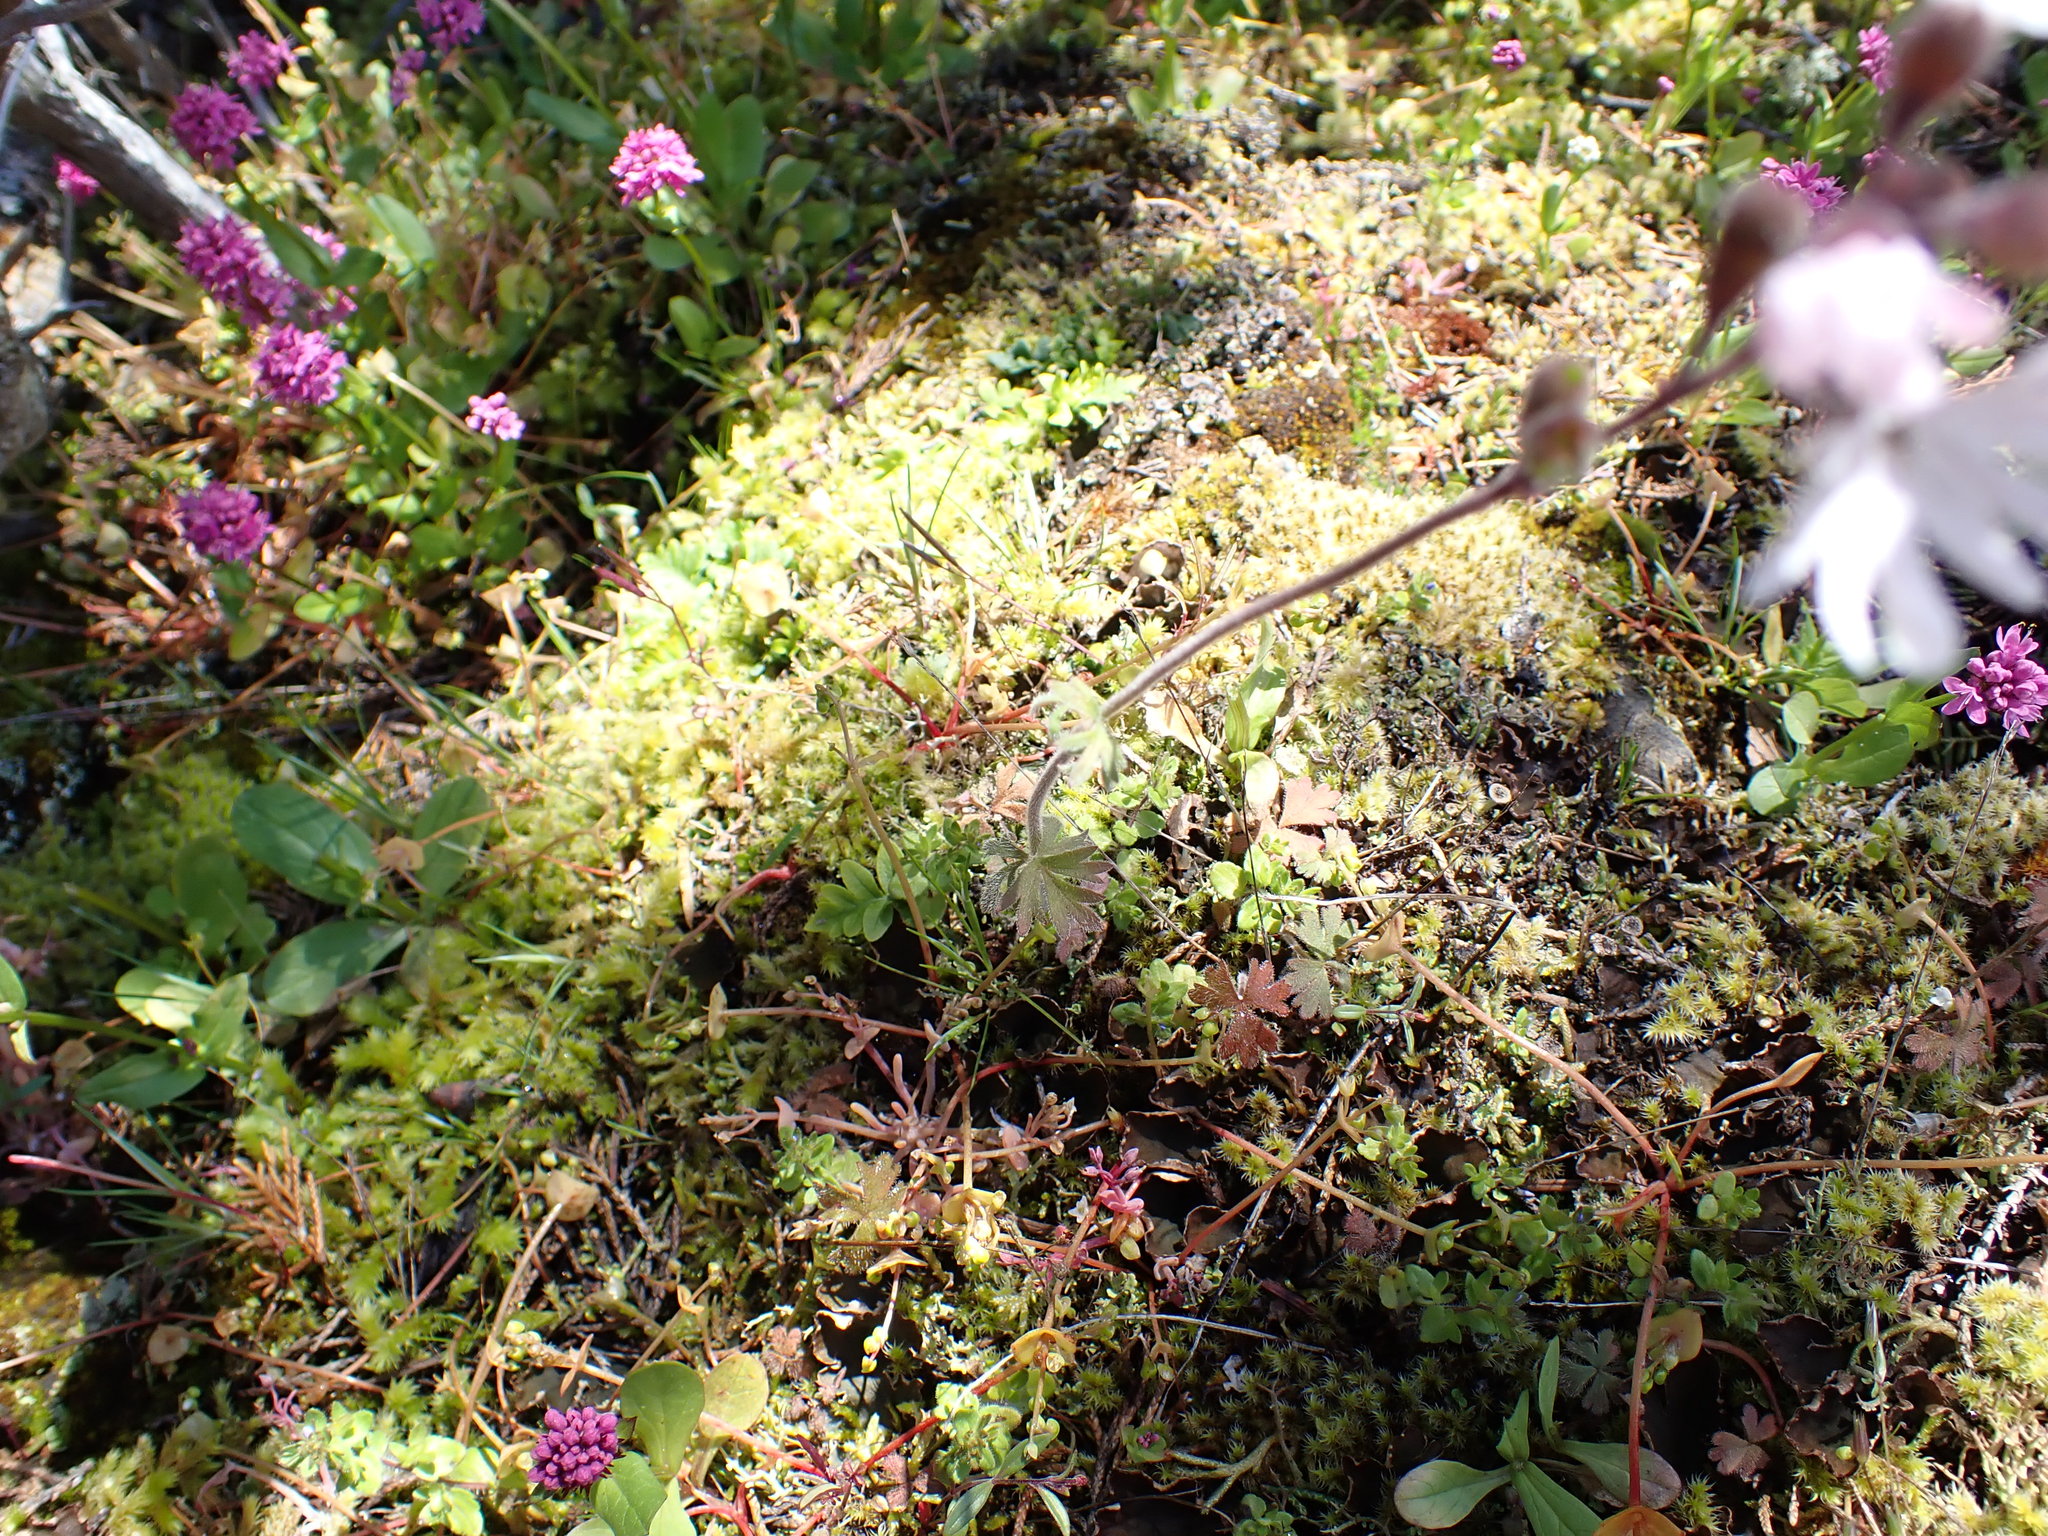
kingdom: Plantae
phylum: Tracheophyta
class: Magnoliopsida
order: Saxifragales
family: Saxifragaceae
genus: Lithophragma
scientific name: Lithophragma parviflorum
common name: Small-flowered fringe-cup
